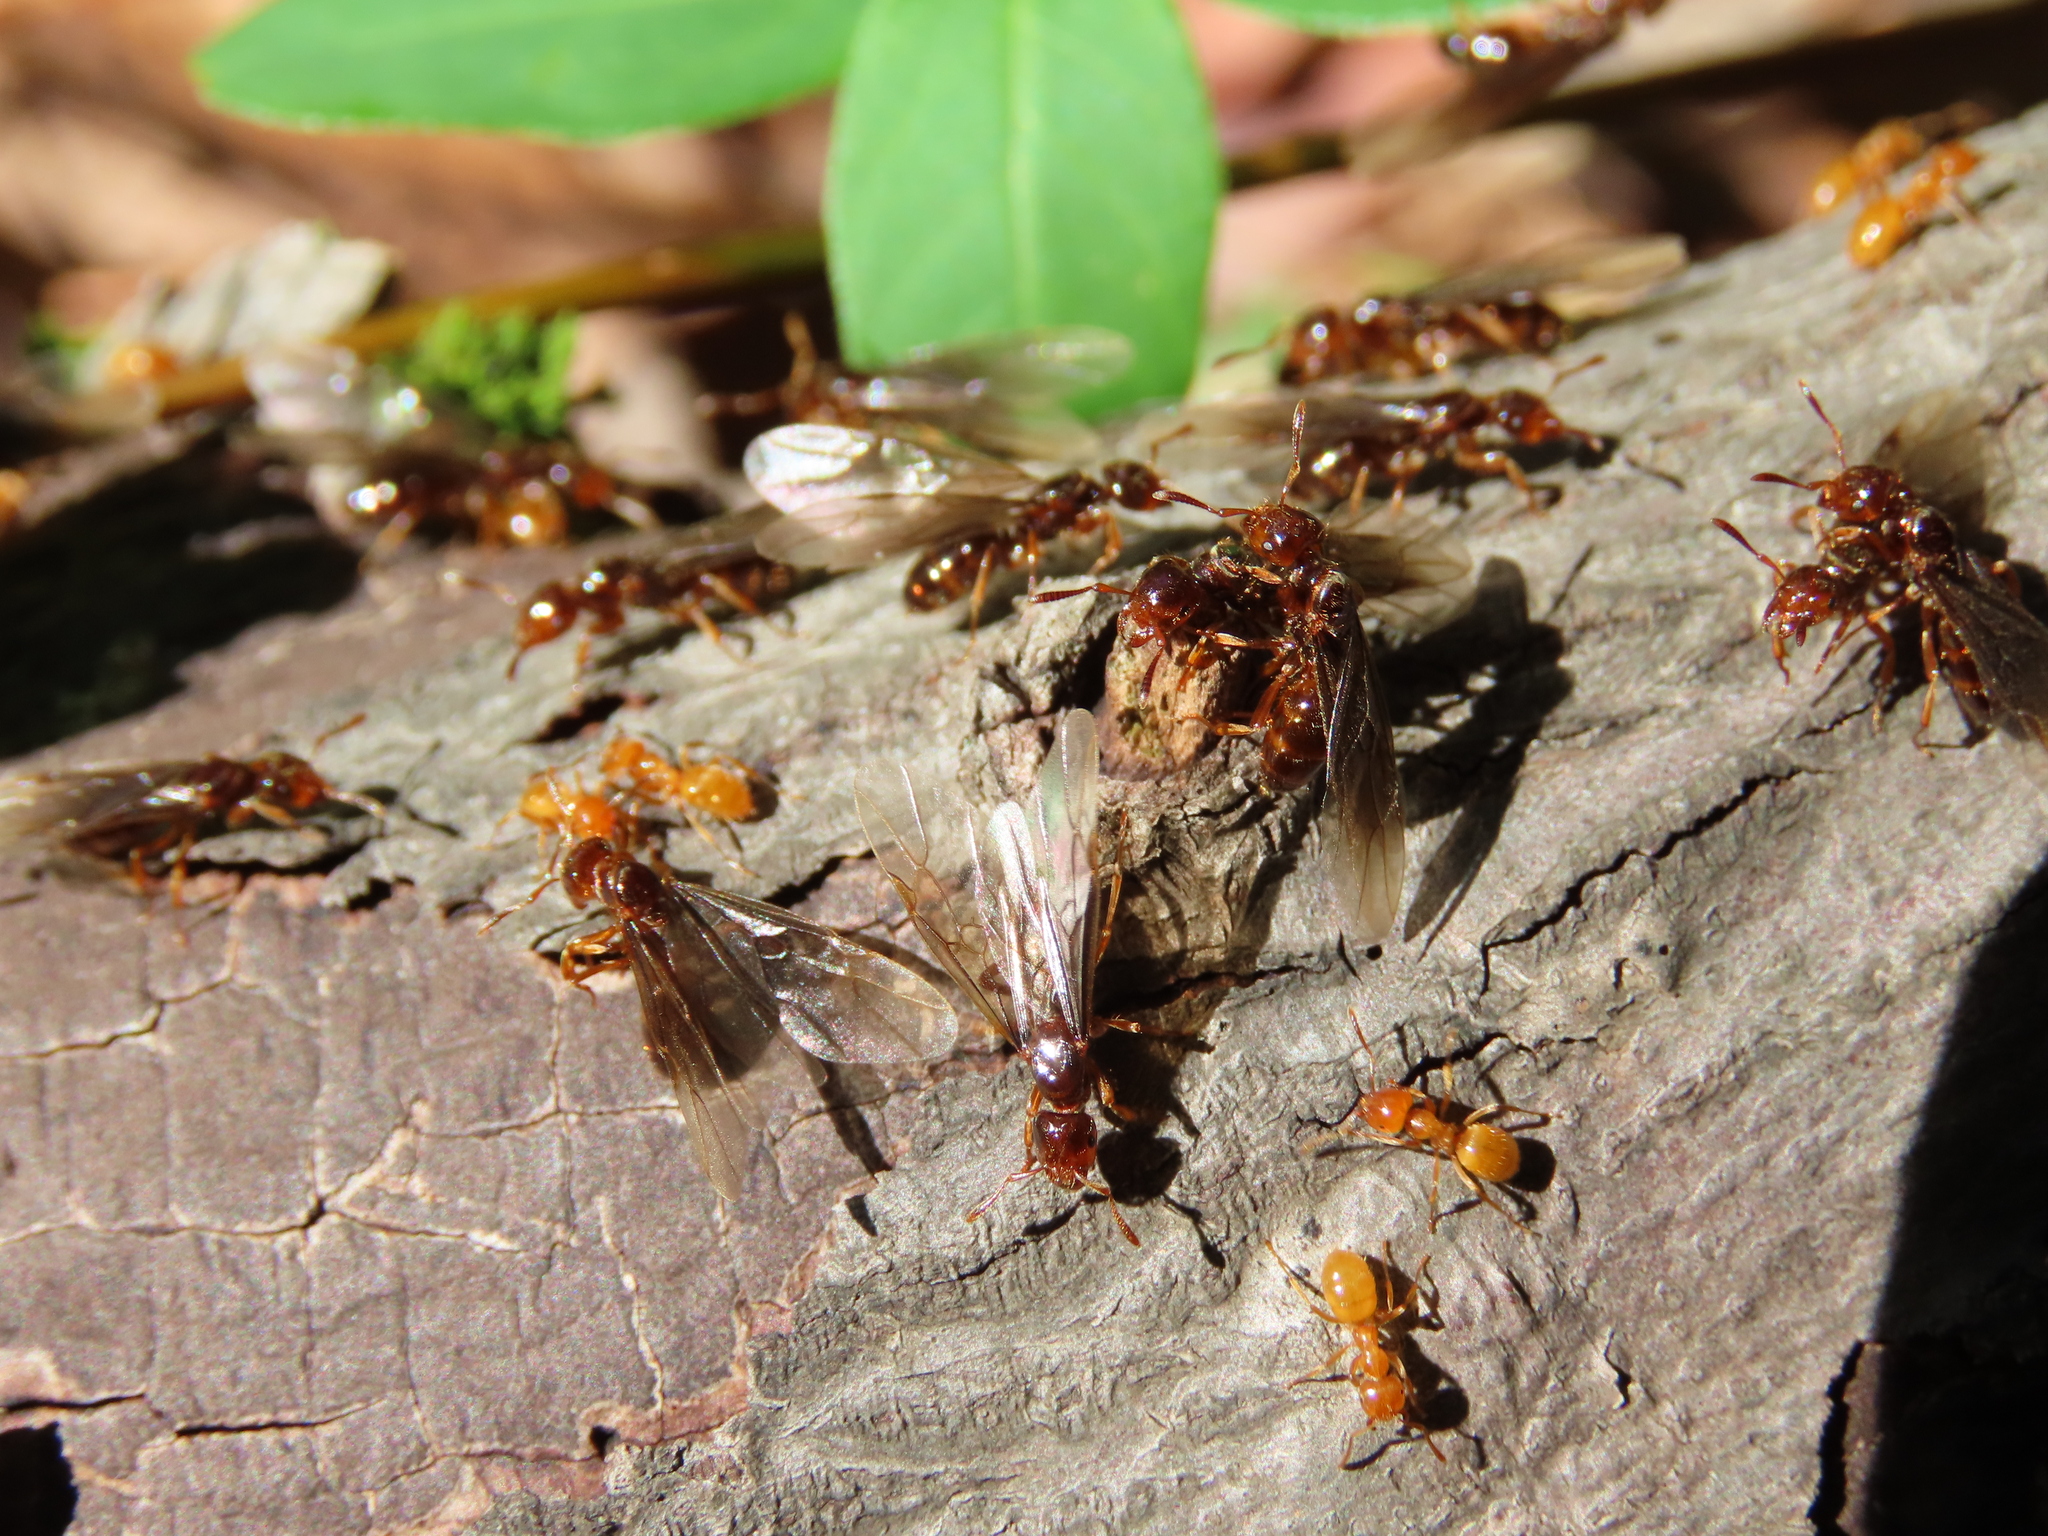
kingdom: Animalia
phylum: Arthropoda
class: Insecta
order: Hymenoptera
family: Formicidae
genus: Lasius
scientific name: Lasius claviger
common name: Common citronella ant
